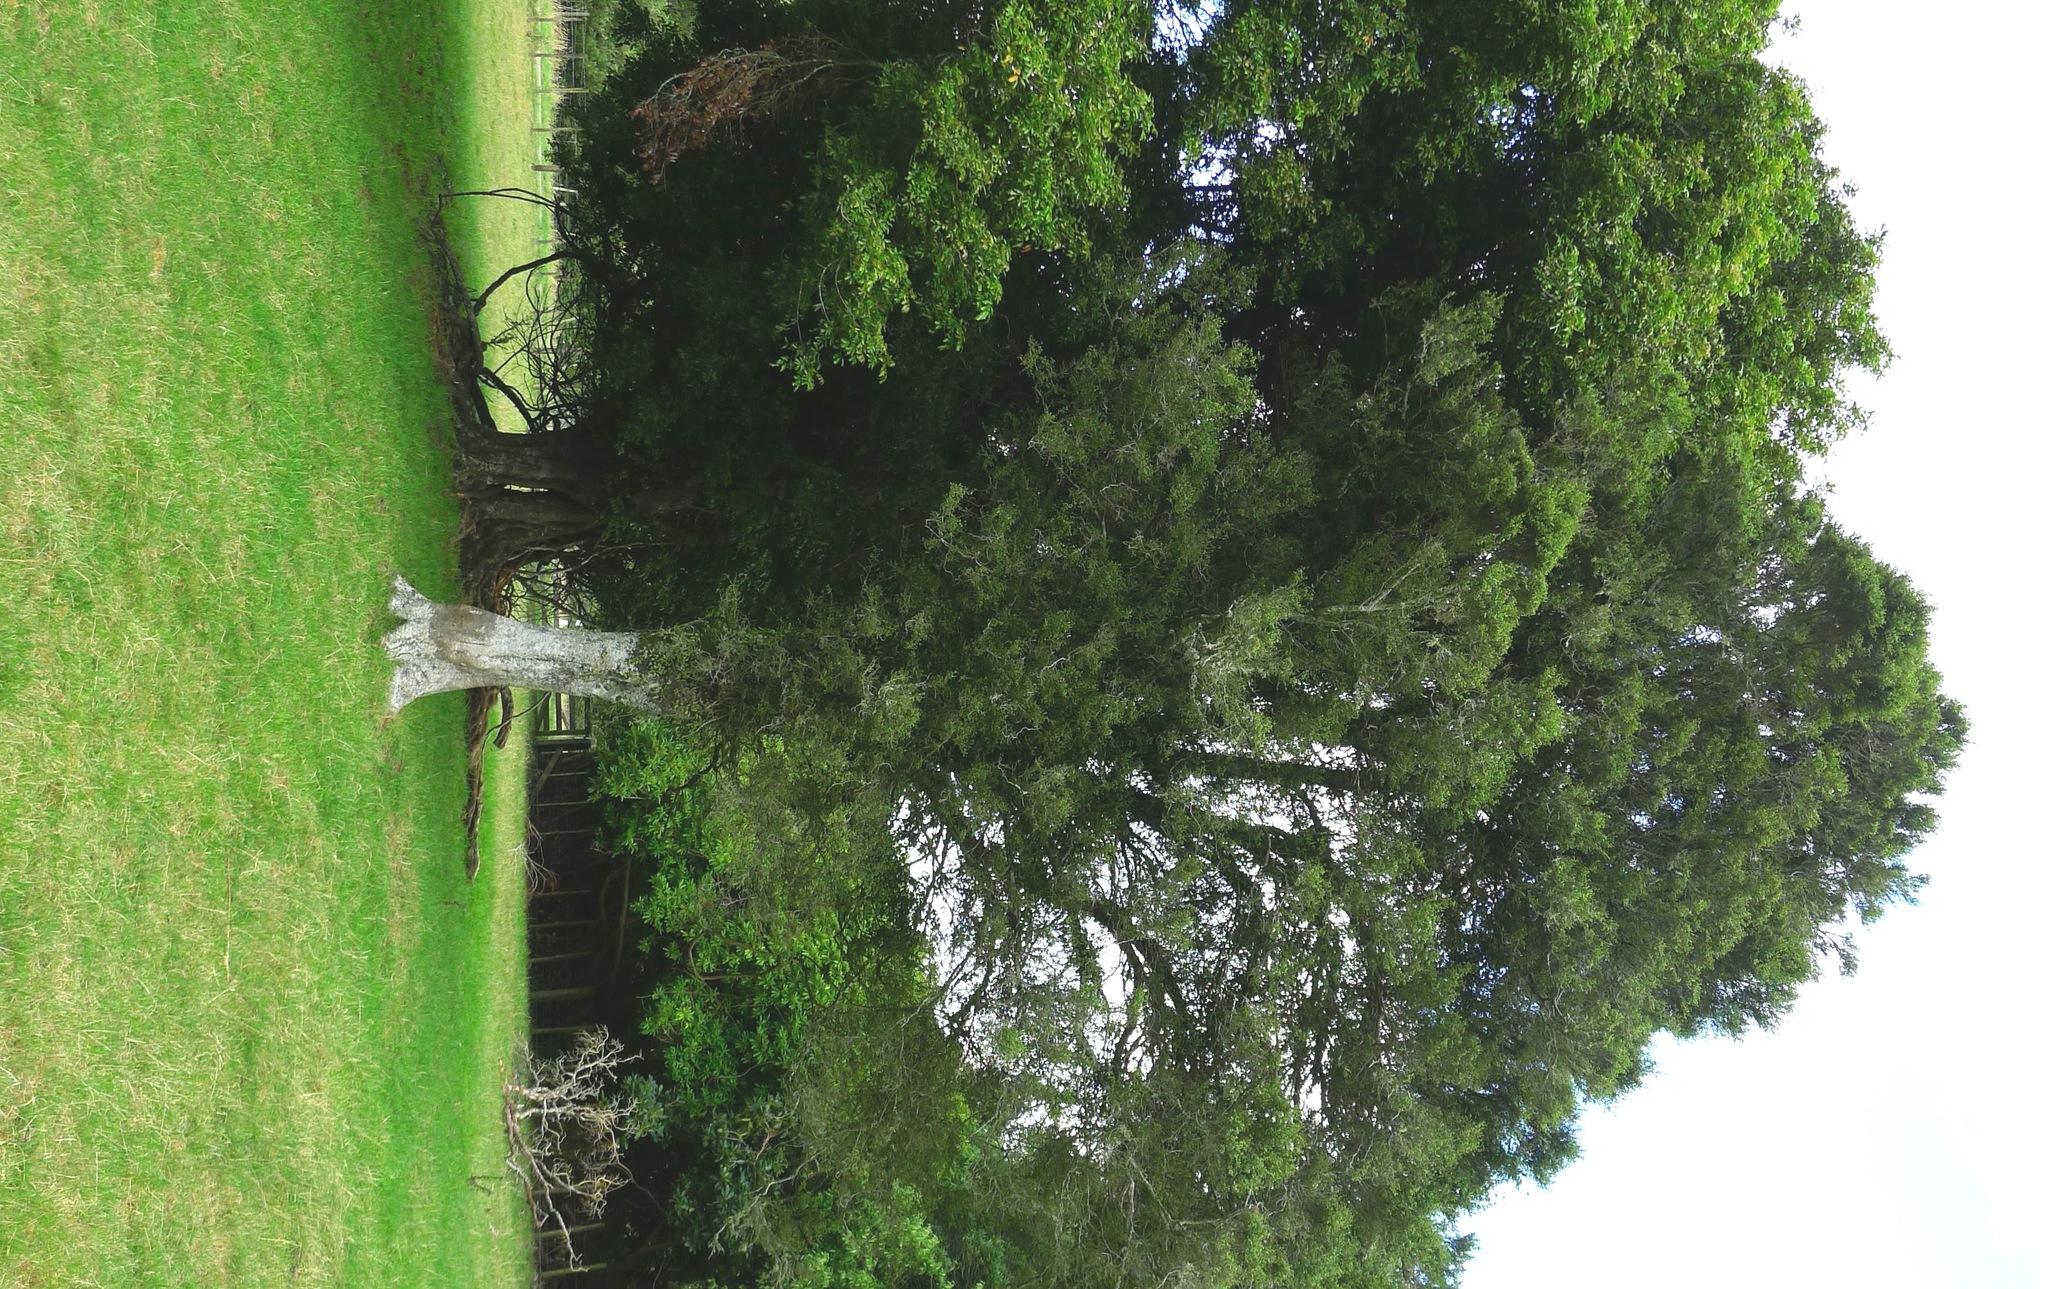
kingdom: Plantae
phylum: Tracheophyta
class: Magnoliopsida
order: Rosales
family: Moraceae
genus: Paratrophis
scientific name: Paratrophis microphylla
